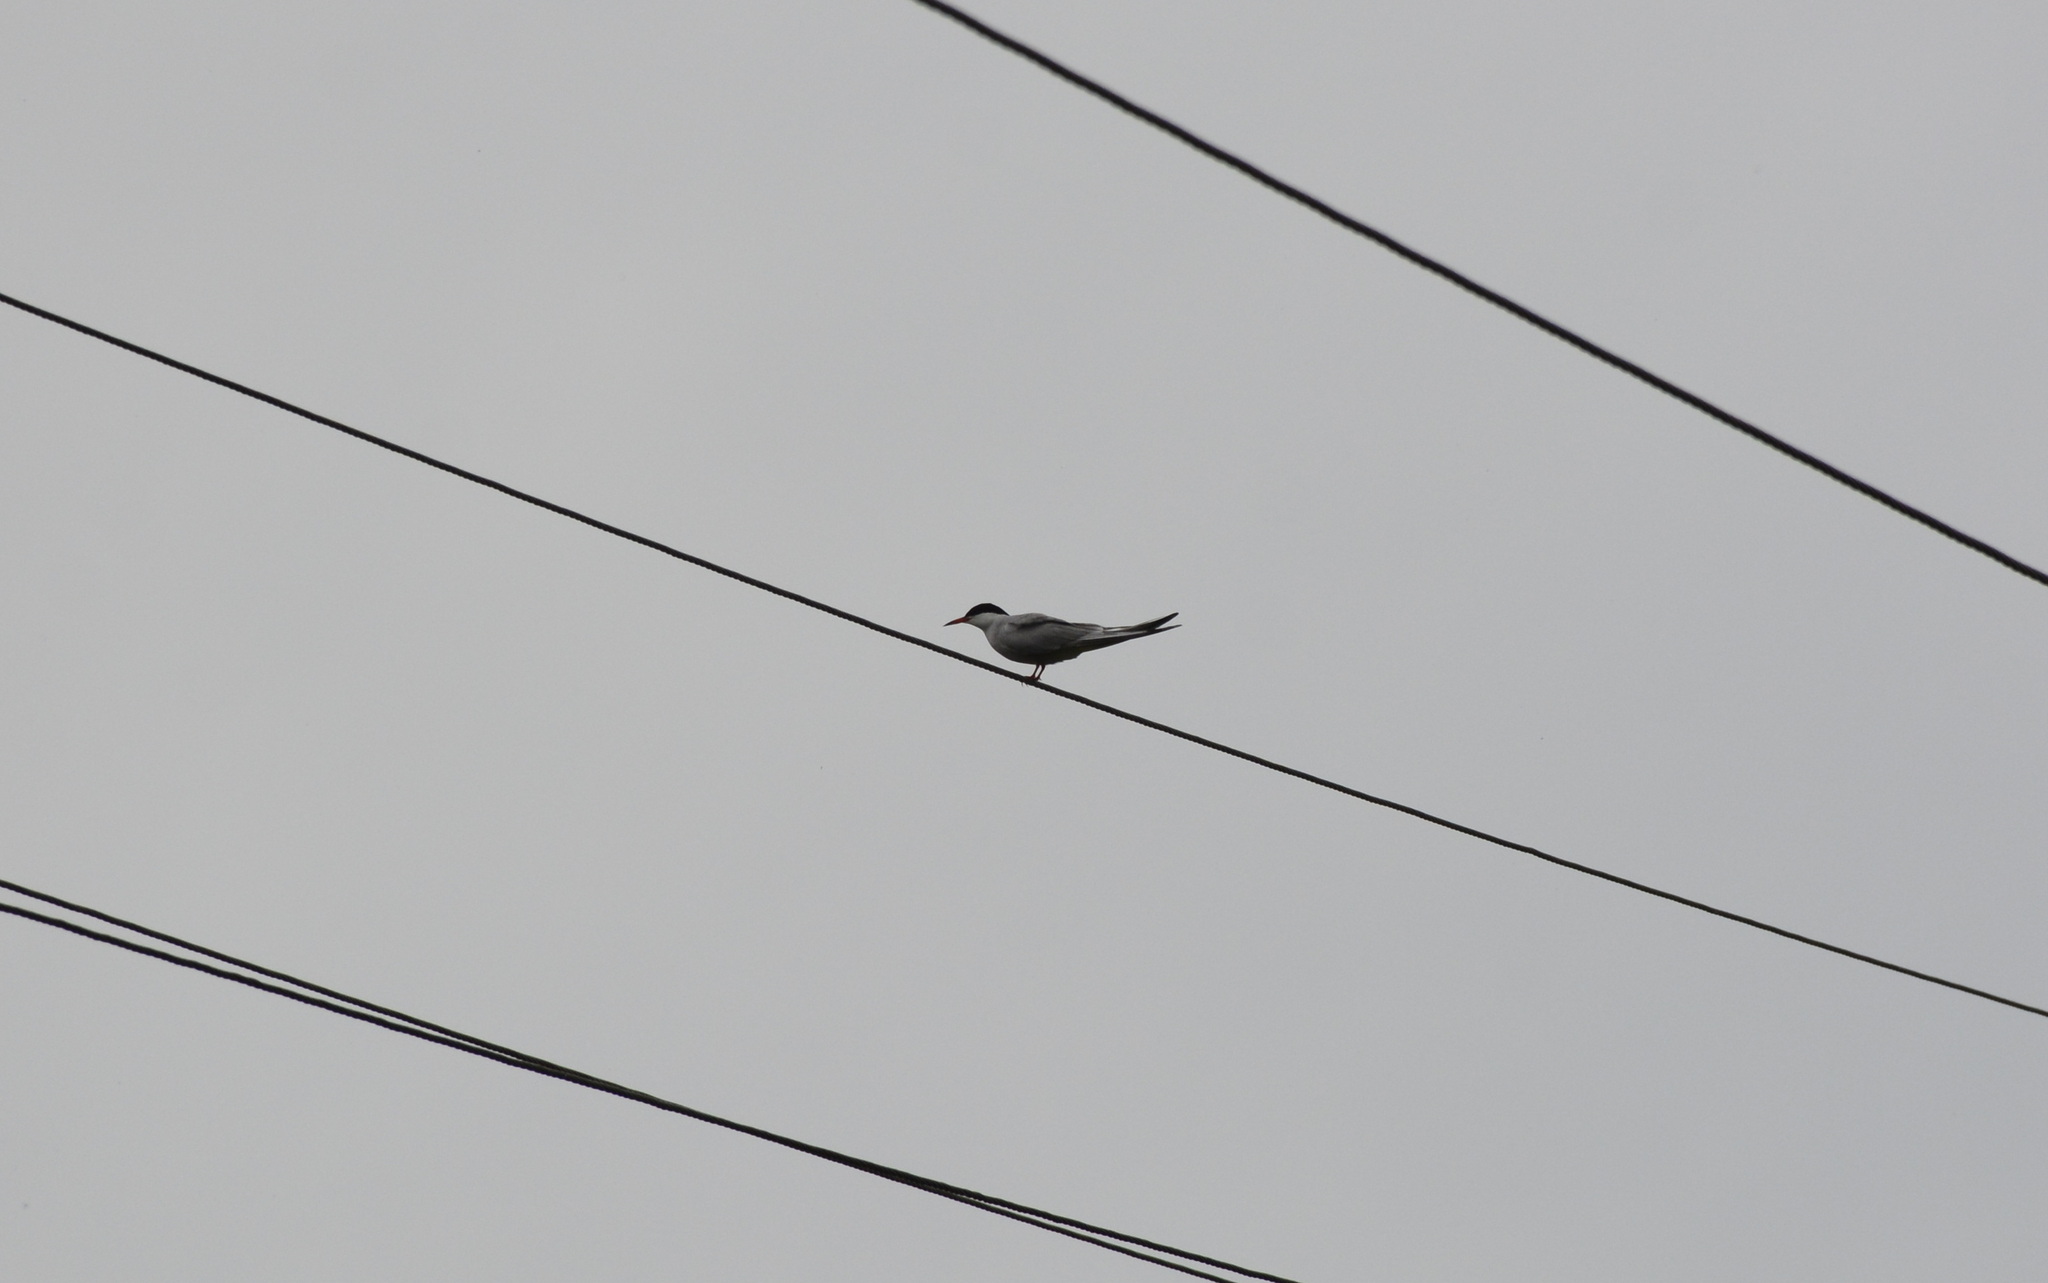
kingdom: Animalia
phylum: Chordata
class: Aves
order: Charadriiformes
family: Laridae
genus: Sterna
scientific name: Sterna hirundo
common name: Common tern
